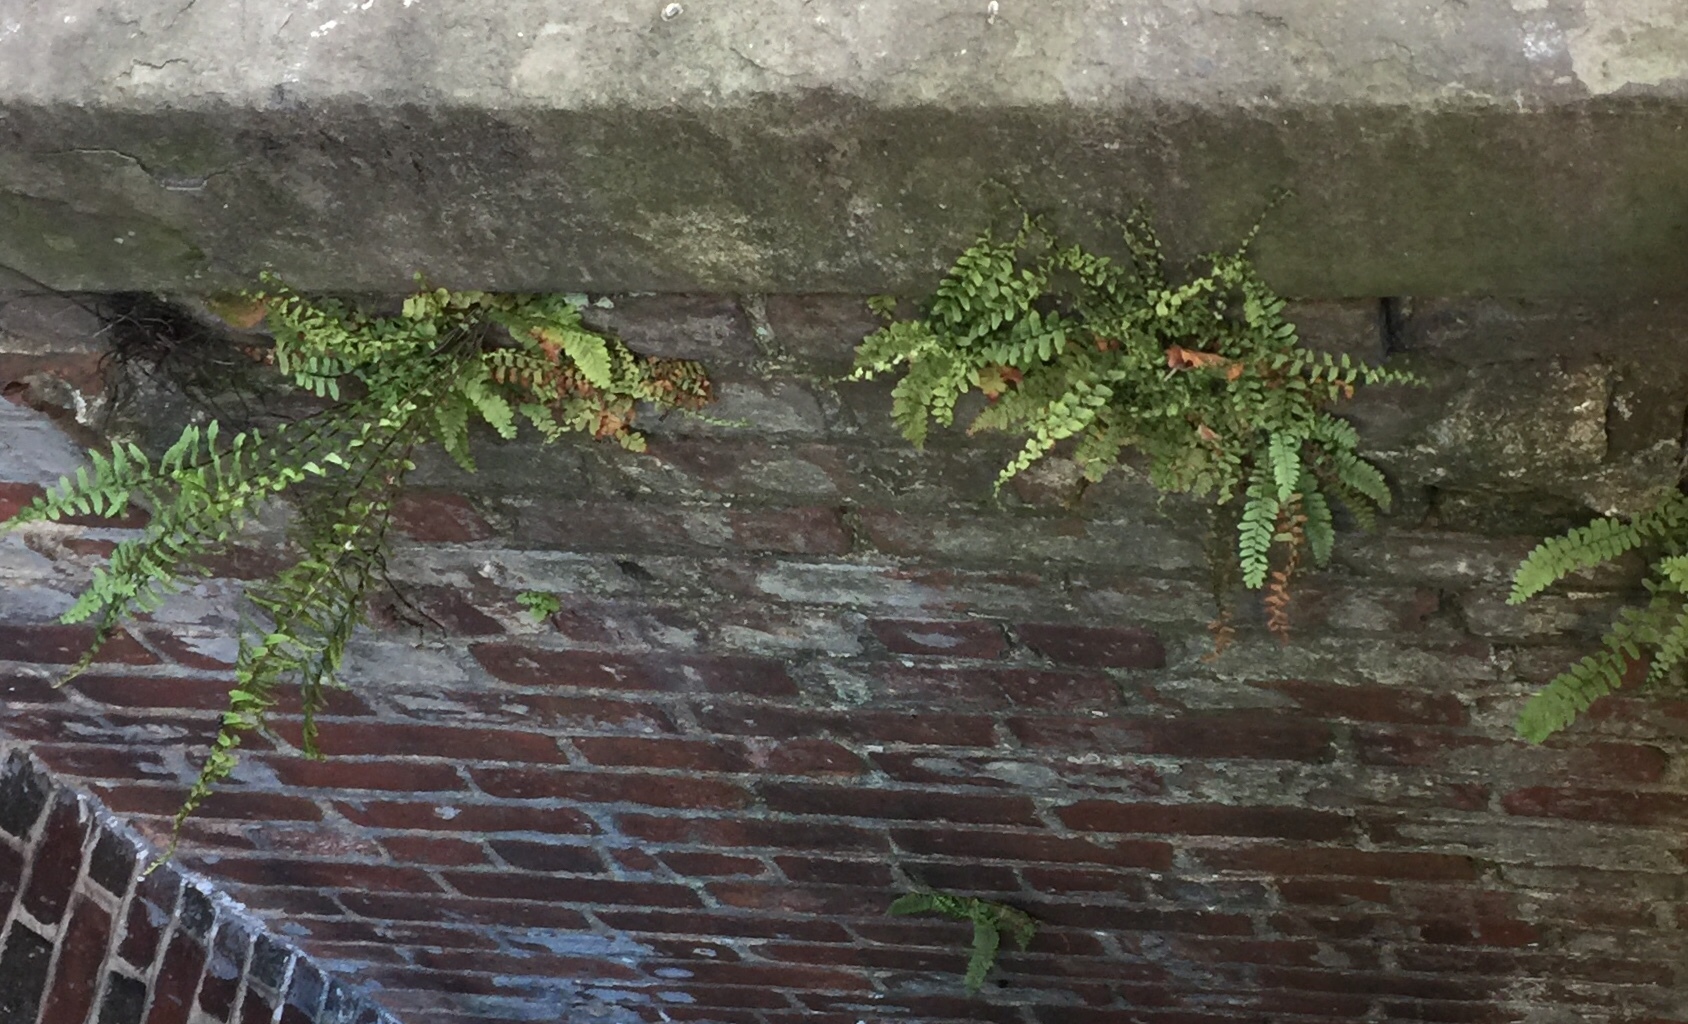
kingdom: Plantae
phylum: Tracheophyta
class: Polypodiopsida
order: Polypodiales
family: Aspleniaceae
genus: Asplenium
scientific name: Asplenium platyneuron
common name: Ebony spleenwort
